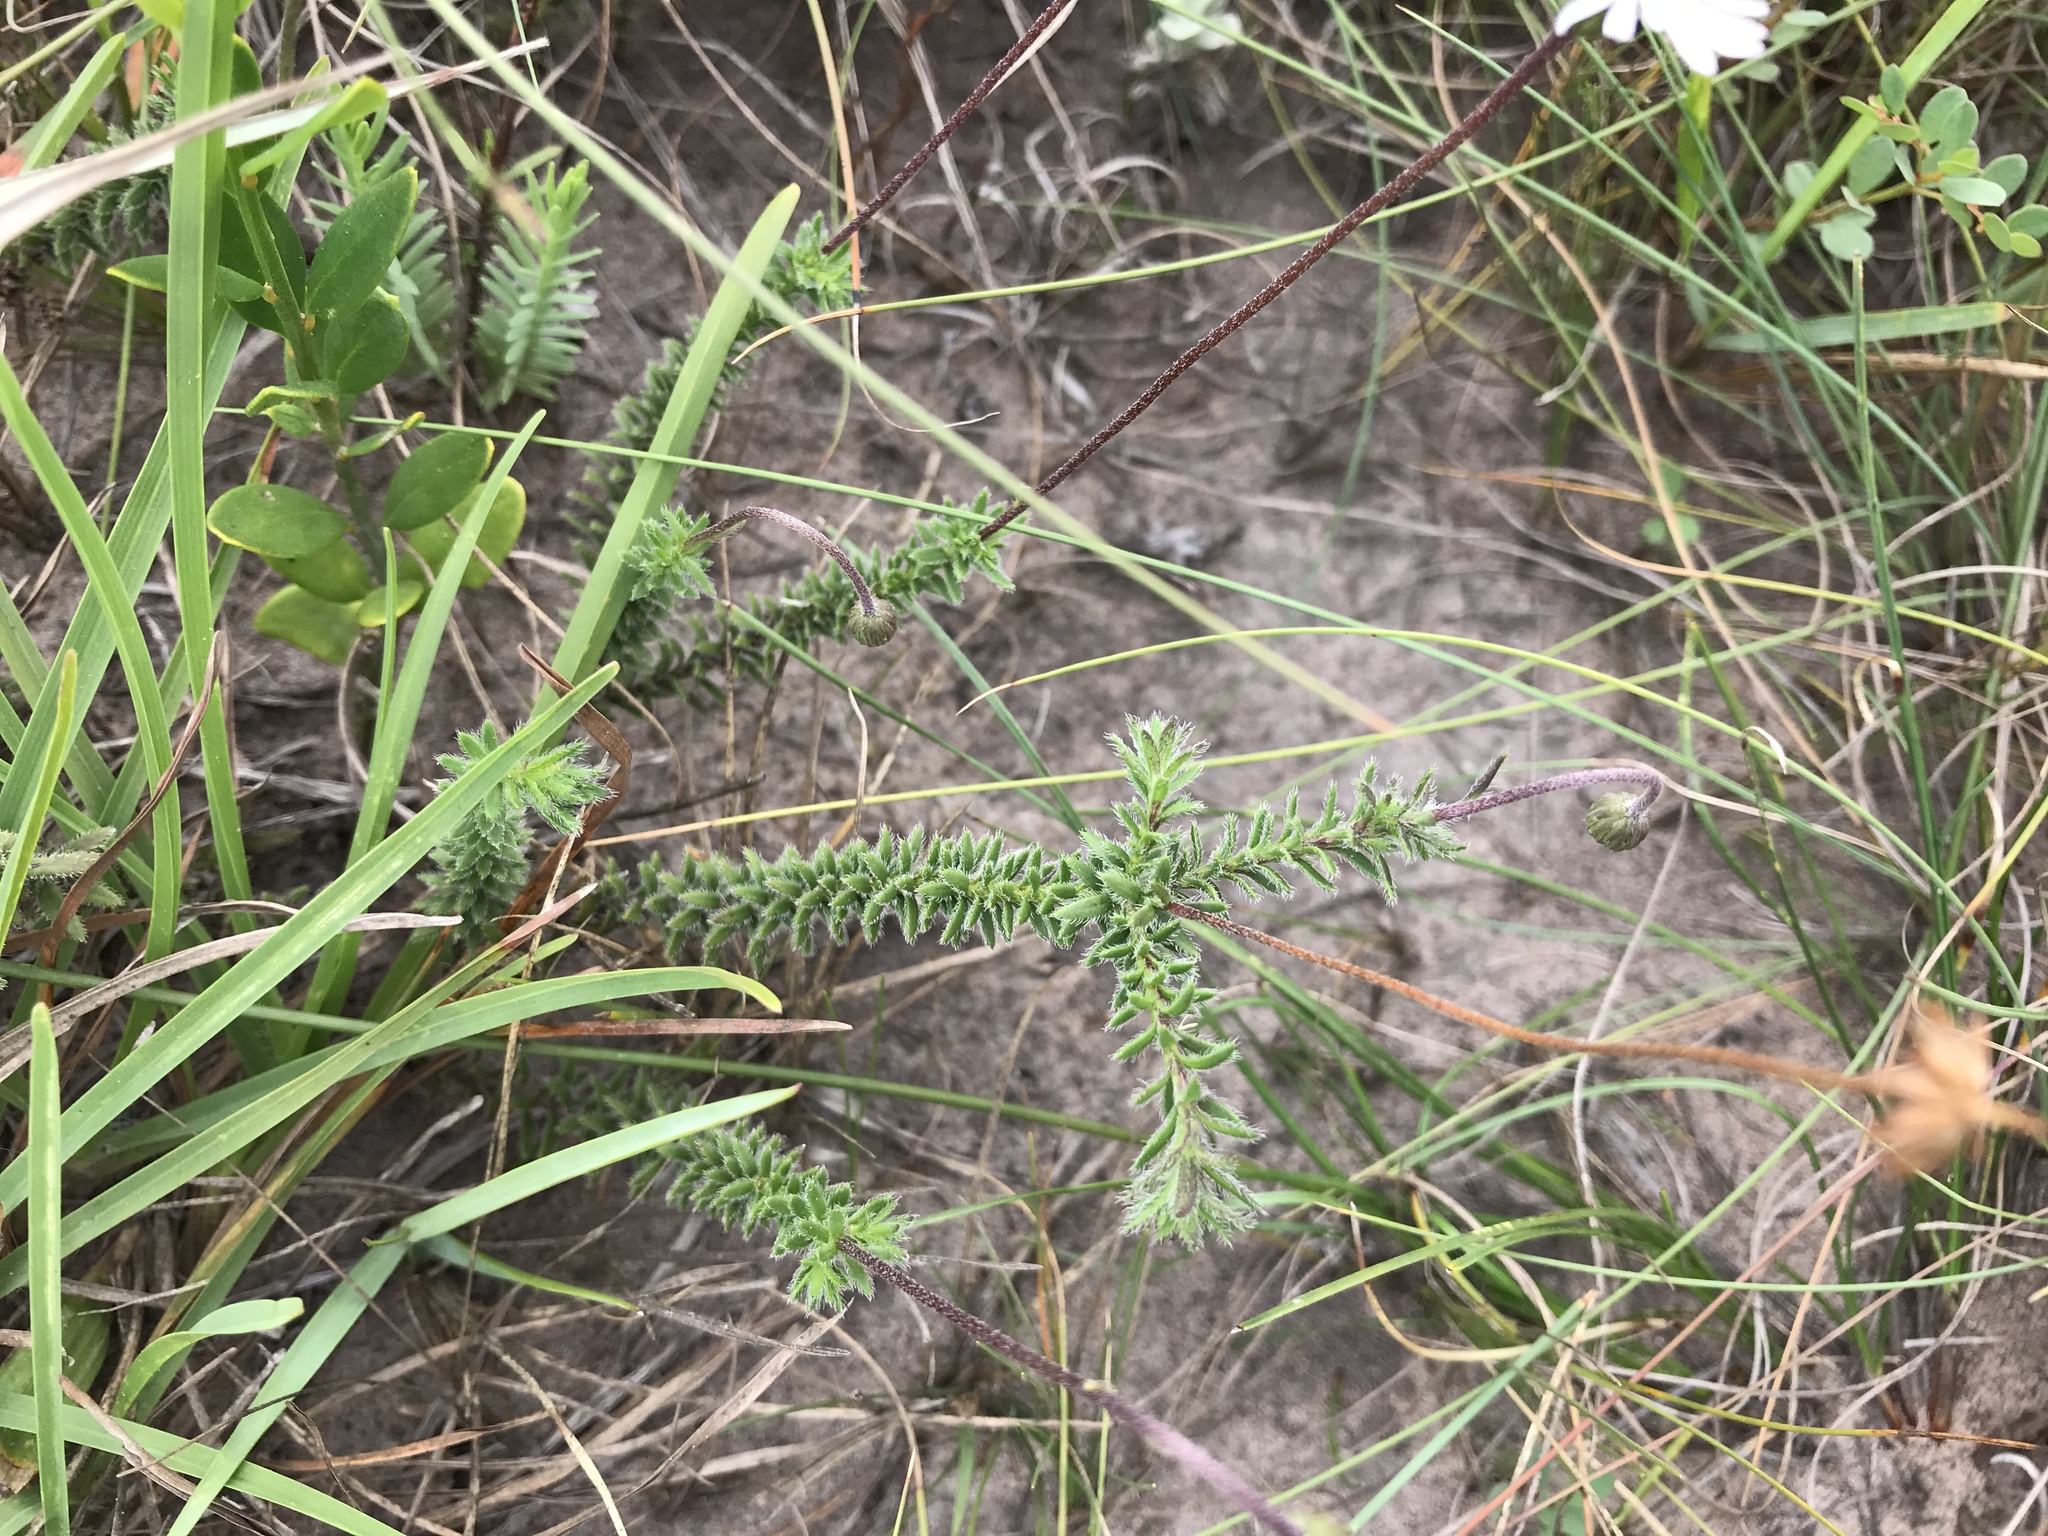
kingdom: Plantae
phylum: Tracheophyta
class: Magnoliopsida
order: Asterales
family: Asteraceae
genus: Felicia
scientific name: Felicia muricata
